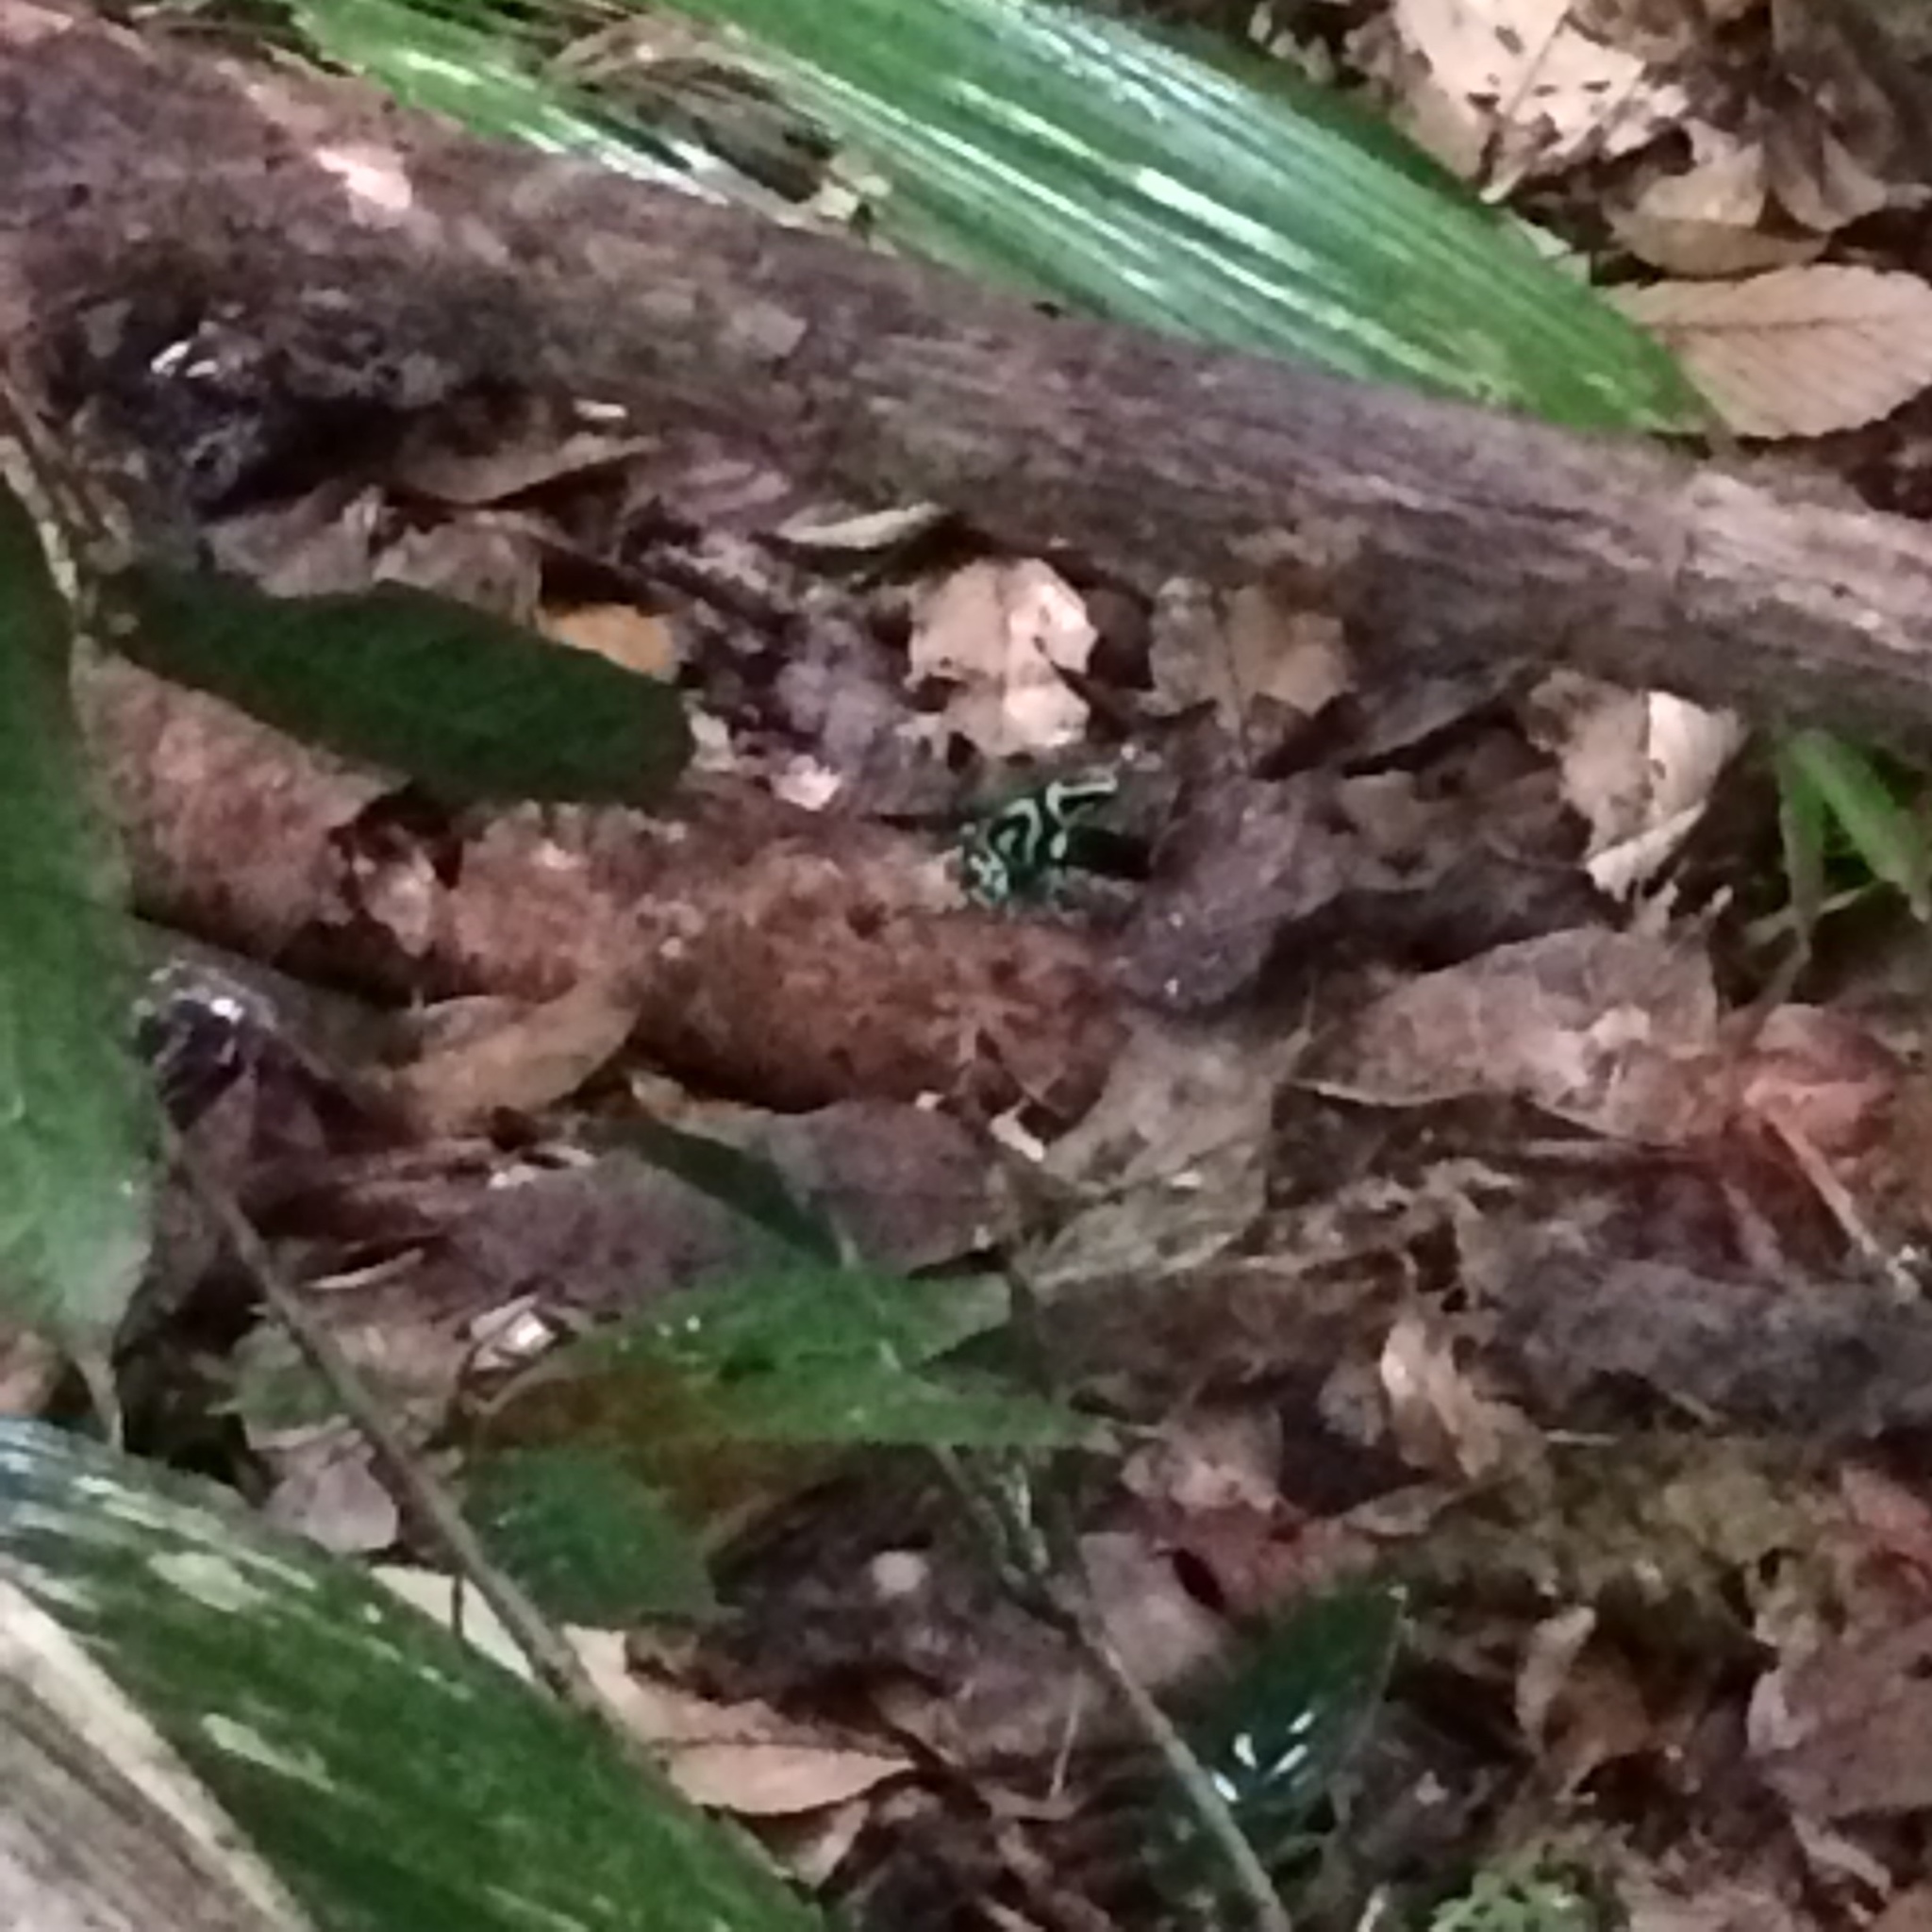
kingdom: Animalia
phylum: Chordata
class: Amphibia
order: Anura
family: Dendrobatidae
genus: Dendrobates
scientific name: Dendrobates auratus
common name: Green and black poison dart frog
